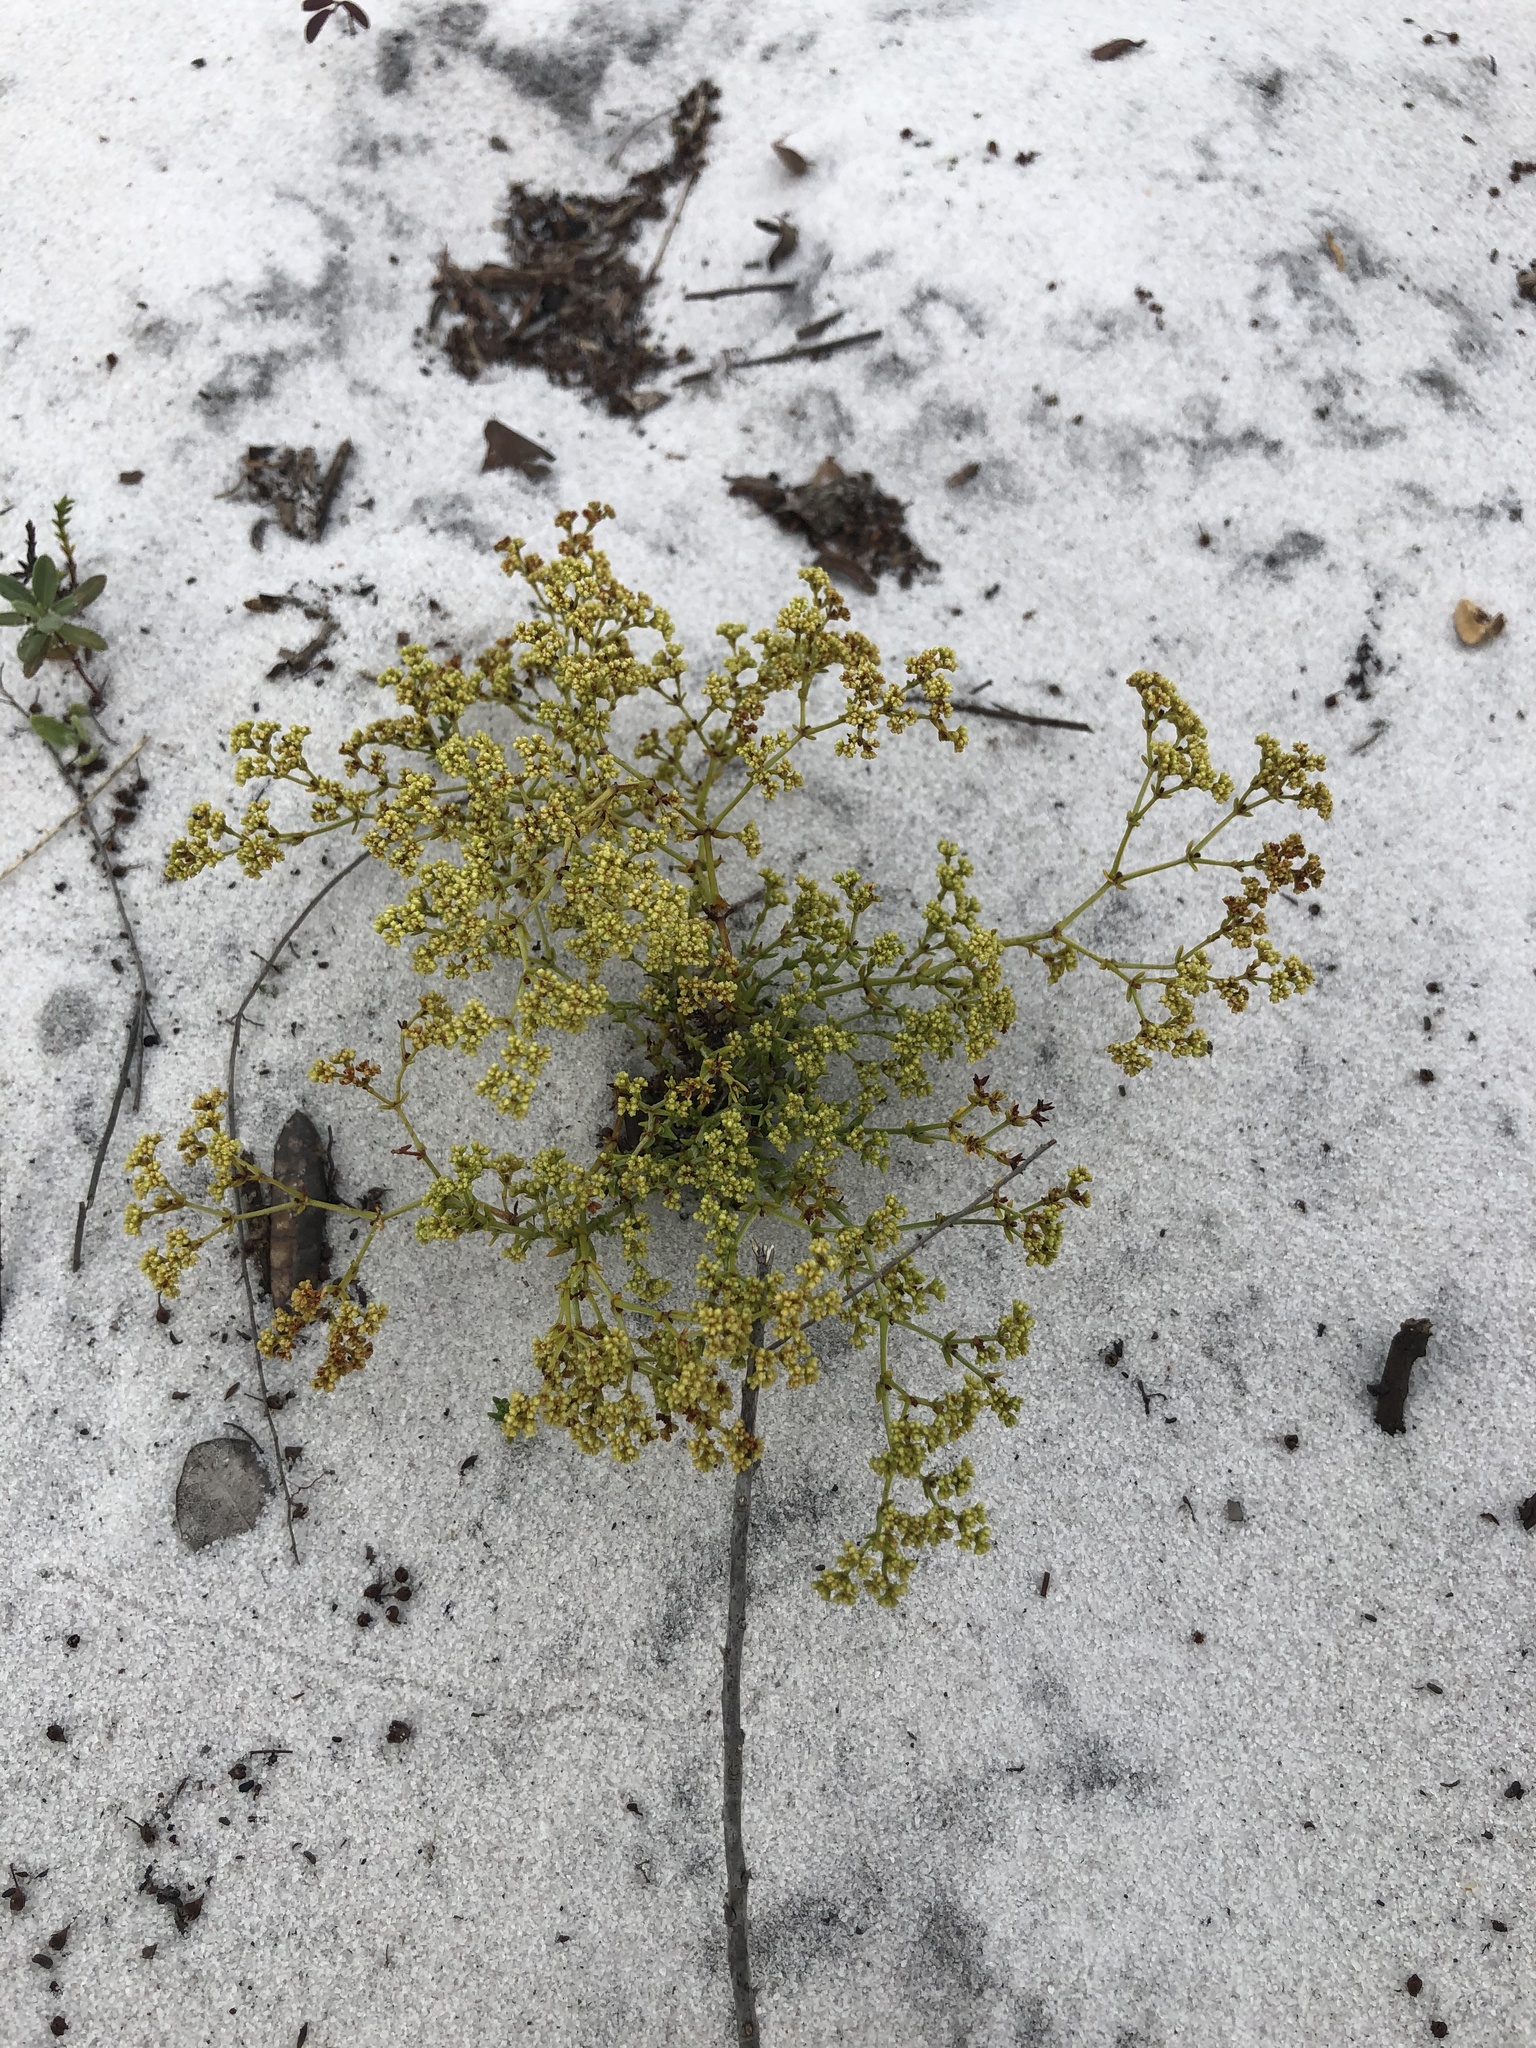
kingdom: Plantae
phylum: Tracheophyta
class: Magnoliopsida
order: Caryophyllales
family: Caryophyllaceae
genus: Paronychia
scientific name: Paronychia chartacea
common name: Paper nailwort
